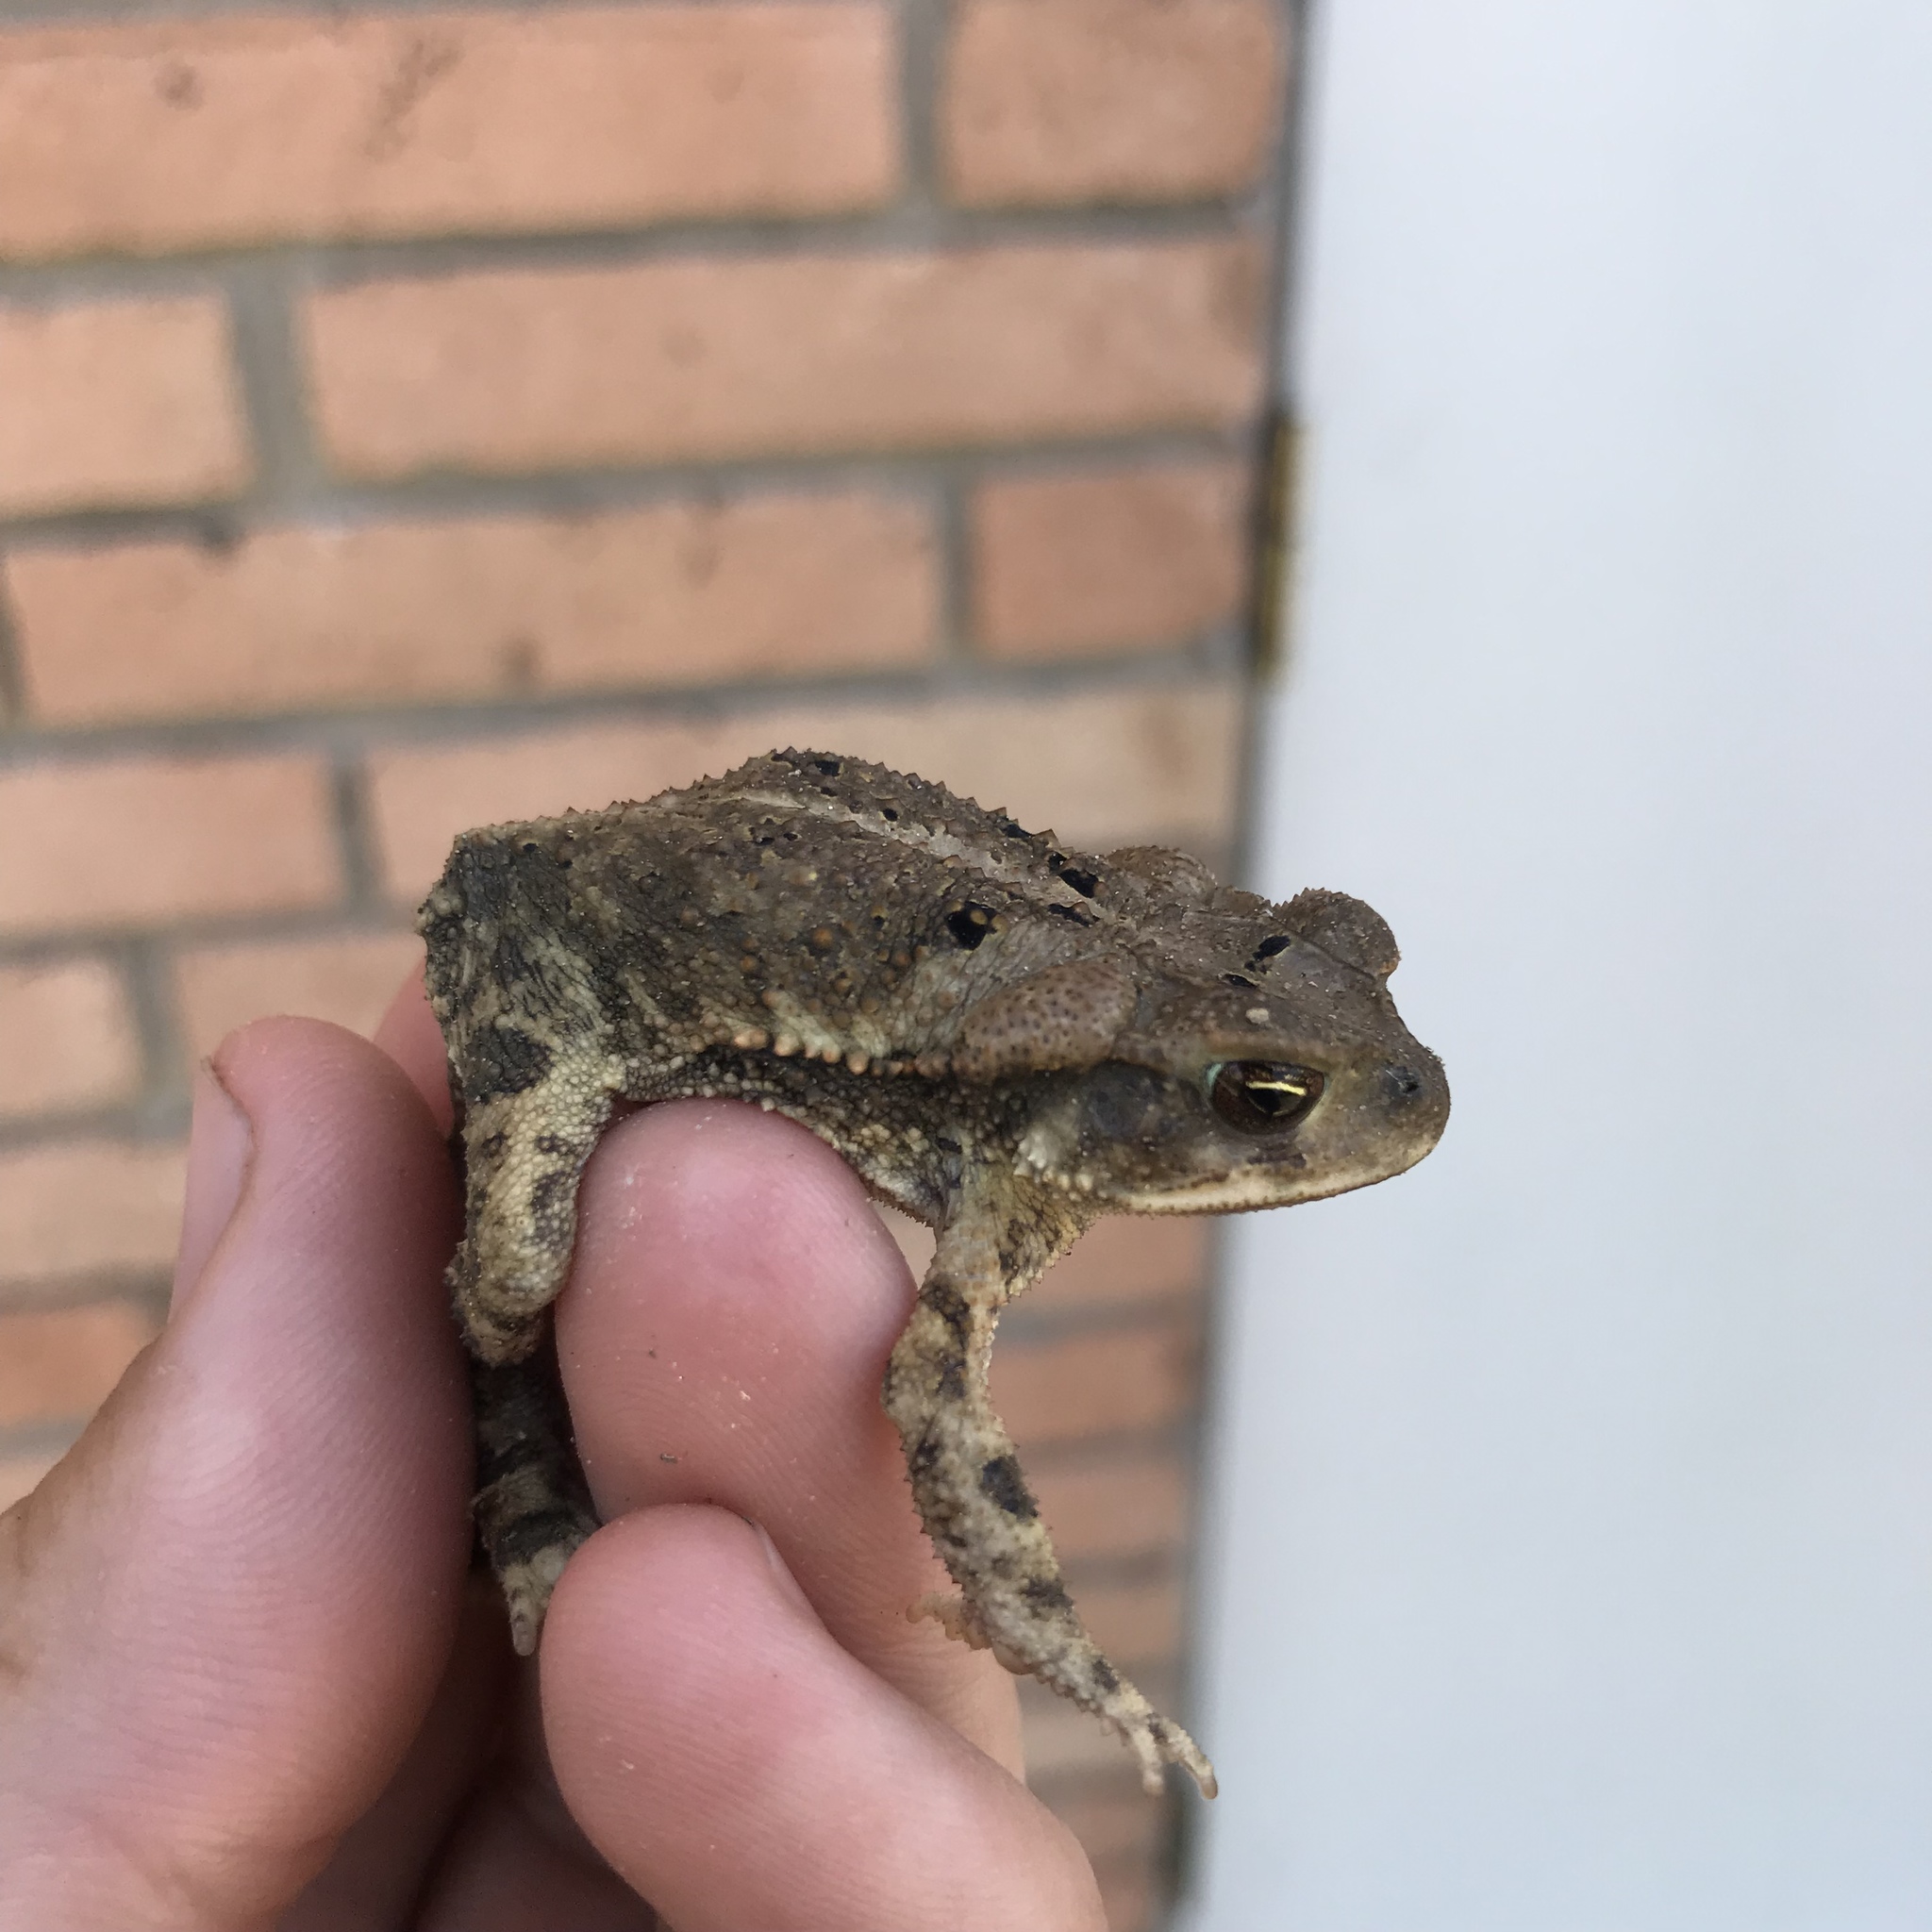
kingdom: Animalia
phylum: Chordata
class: Amphibia
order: Anura
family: Bufonidae
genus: Incilius
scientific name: Incilius nebulifer
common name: Gulf coast toad
